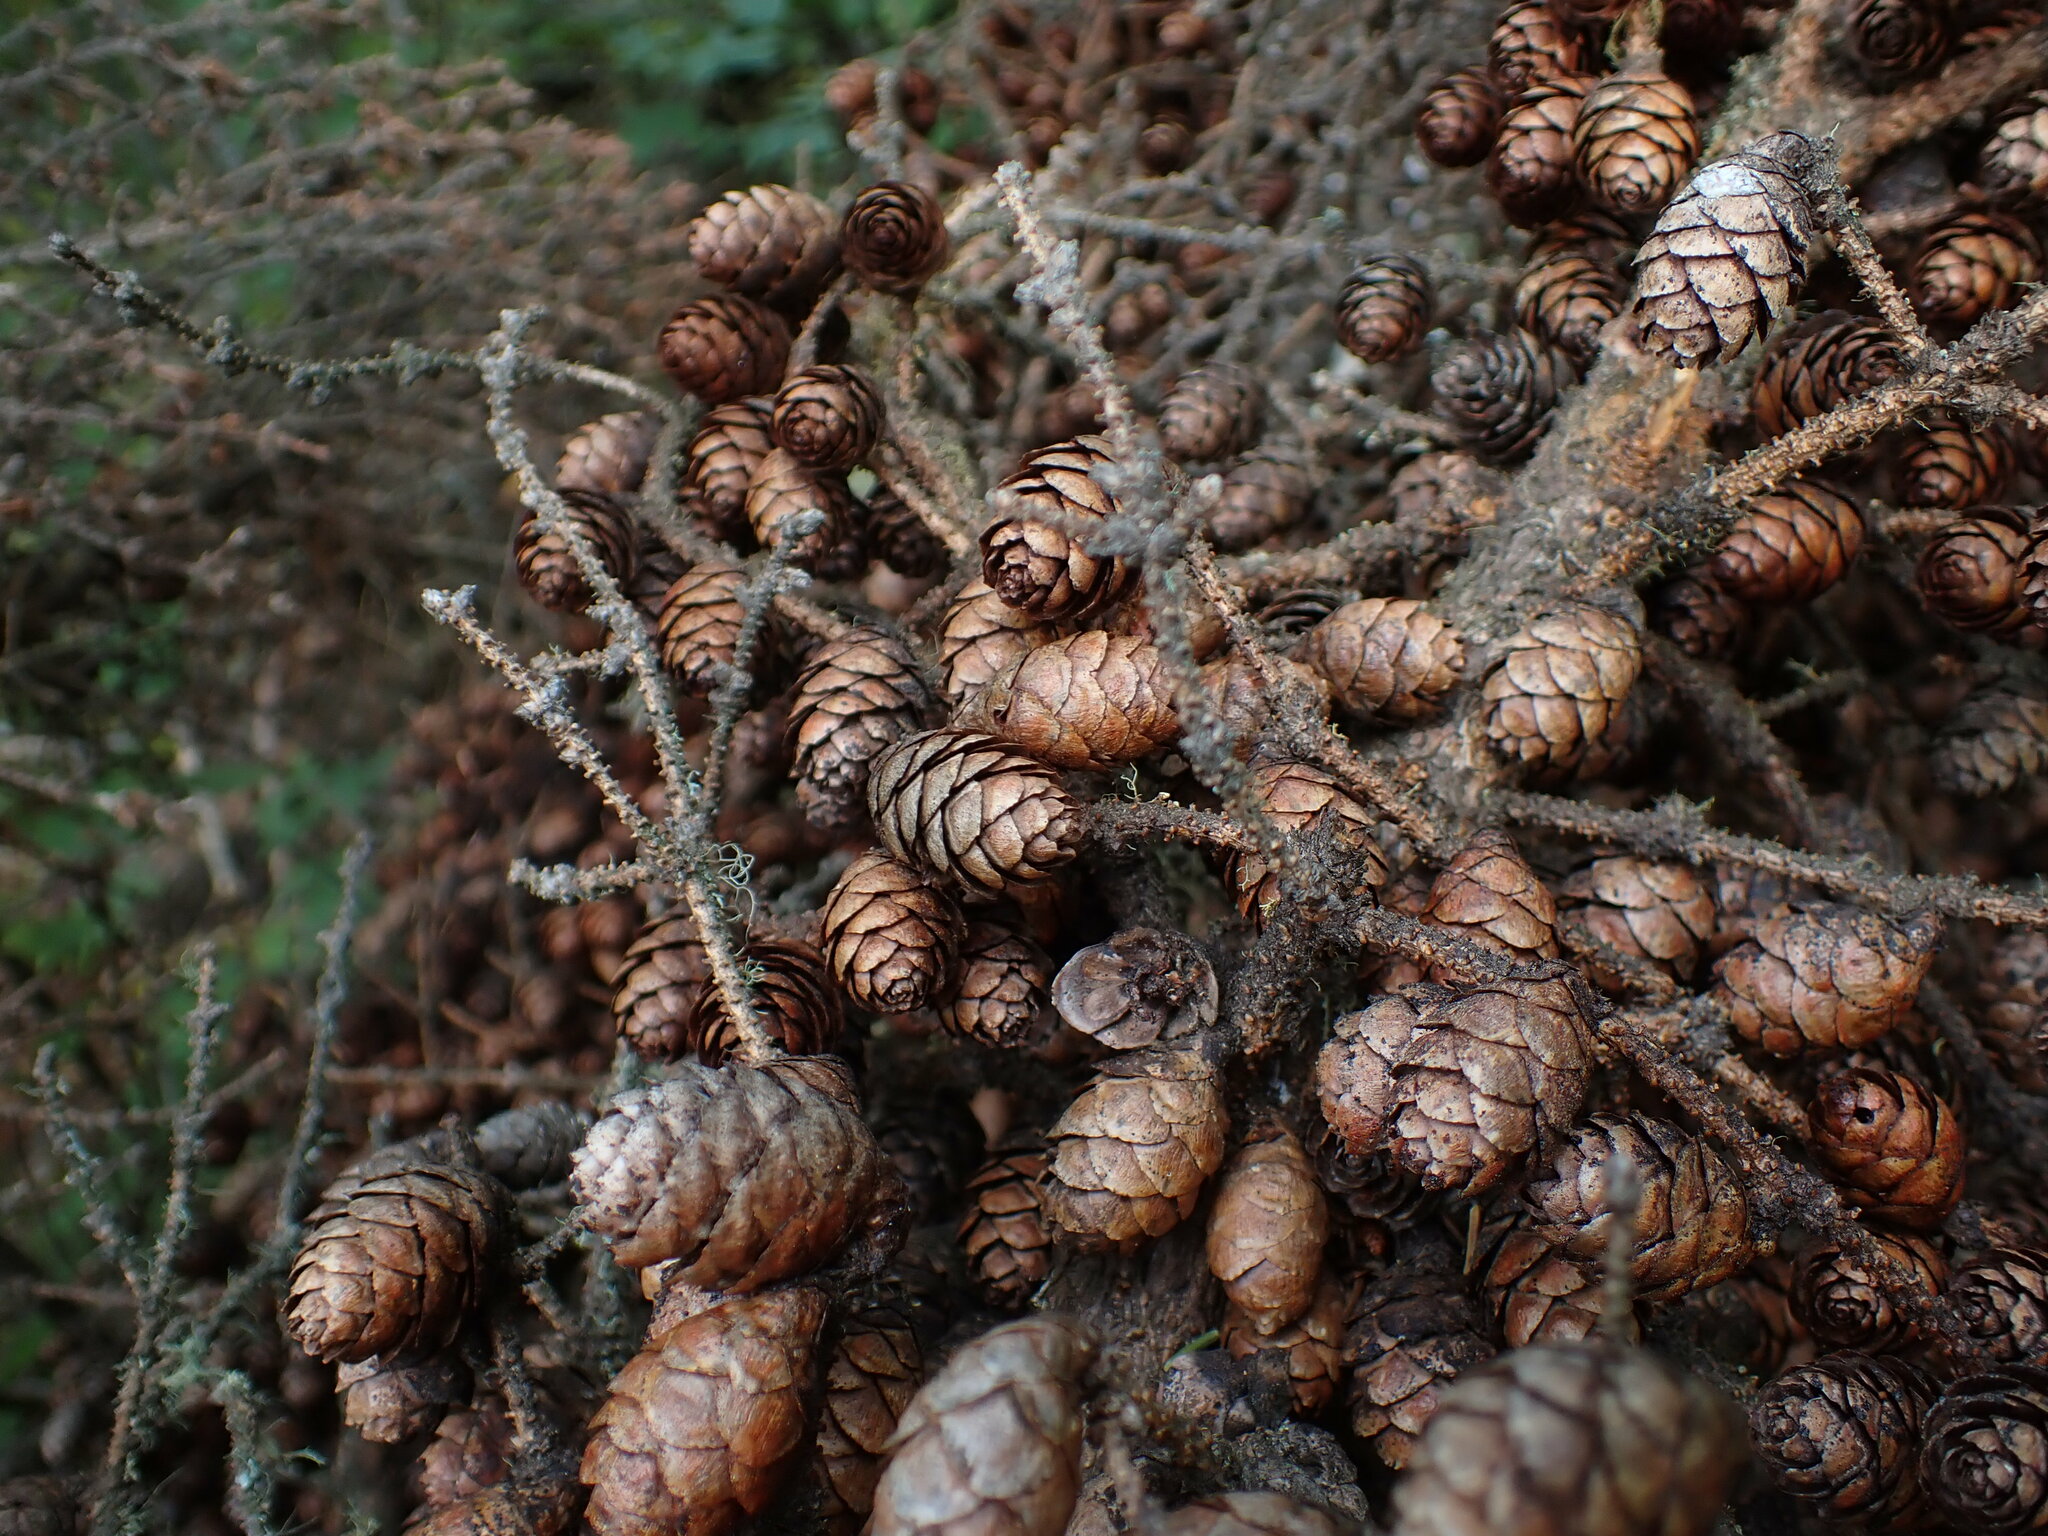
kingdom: Plantae
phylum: Tracheophyta
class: Pinopsida
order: Pinales
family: Pinaceae
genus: Picea
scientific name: Picea mariana
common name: Black spruce
